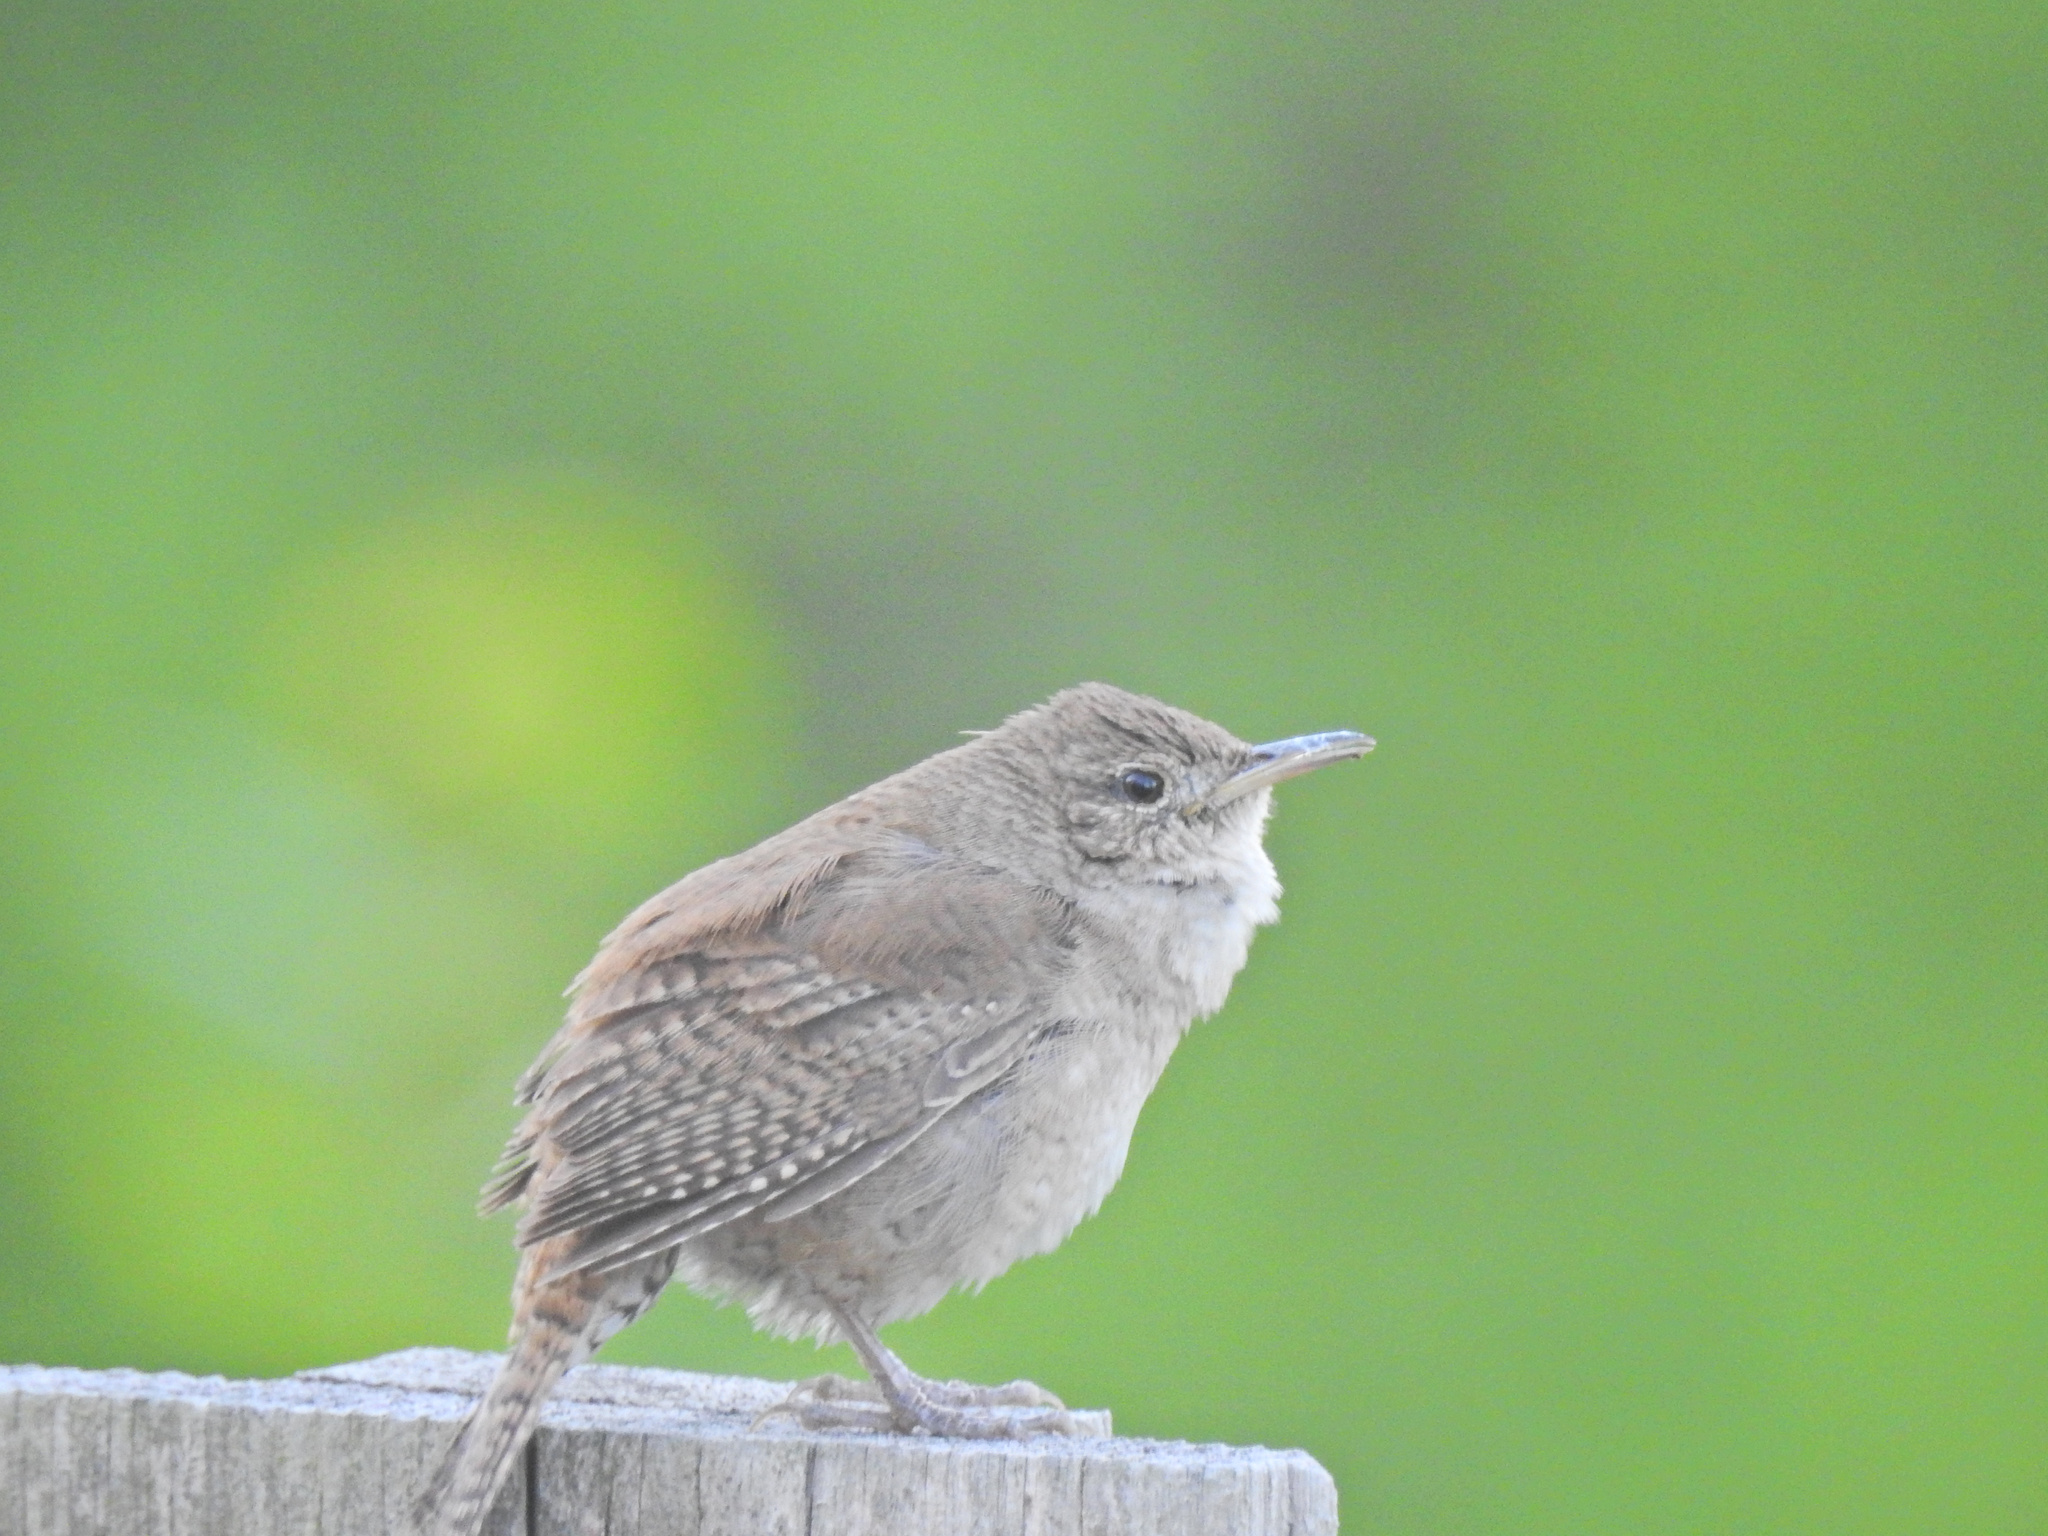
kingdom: Animalia
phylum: Chordata
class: Aves
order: Passeriformes
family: Troglodytidae
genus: Troglodytes
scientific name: Troglodytes aedon
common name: House wren
